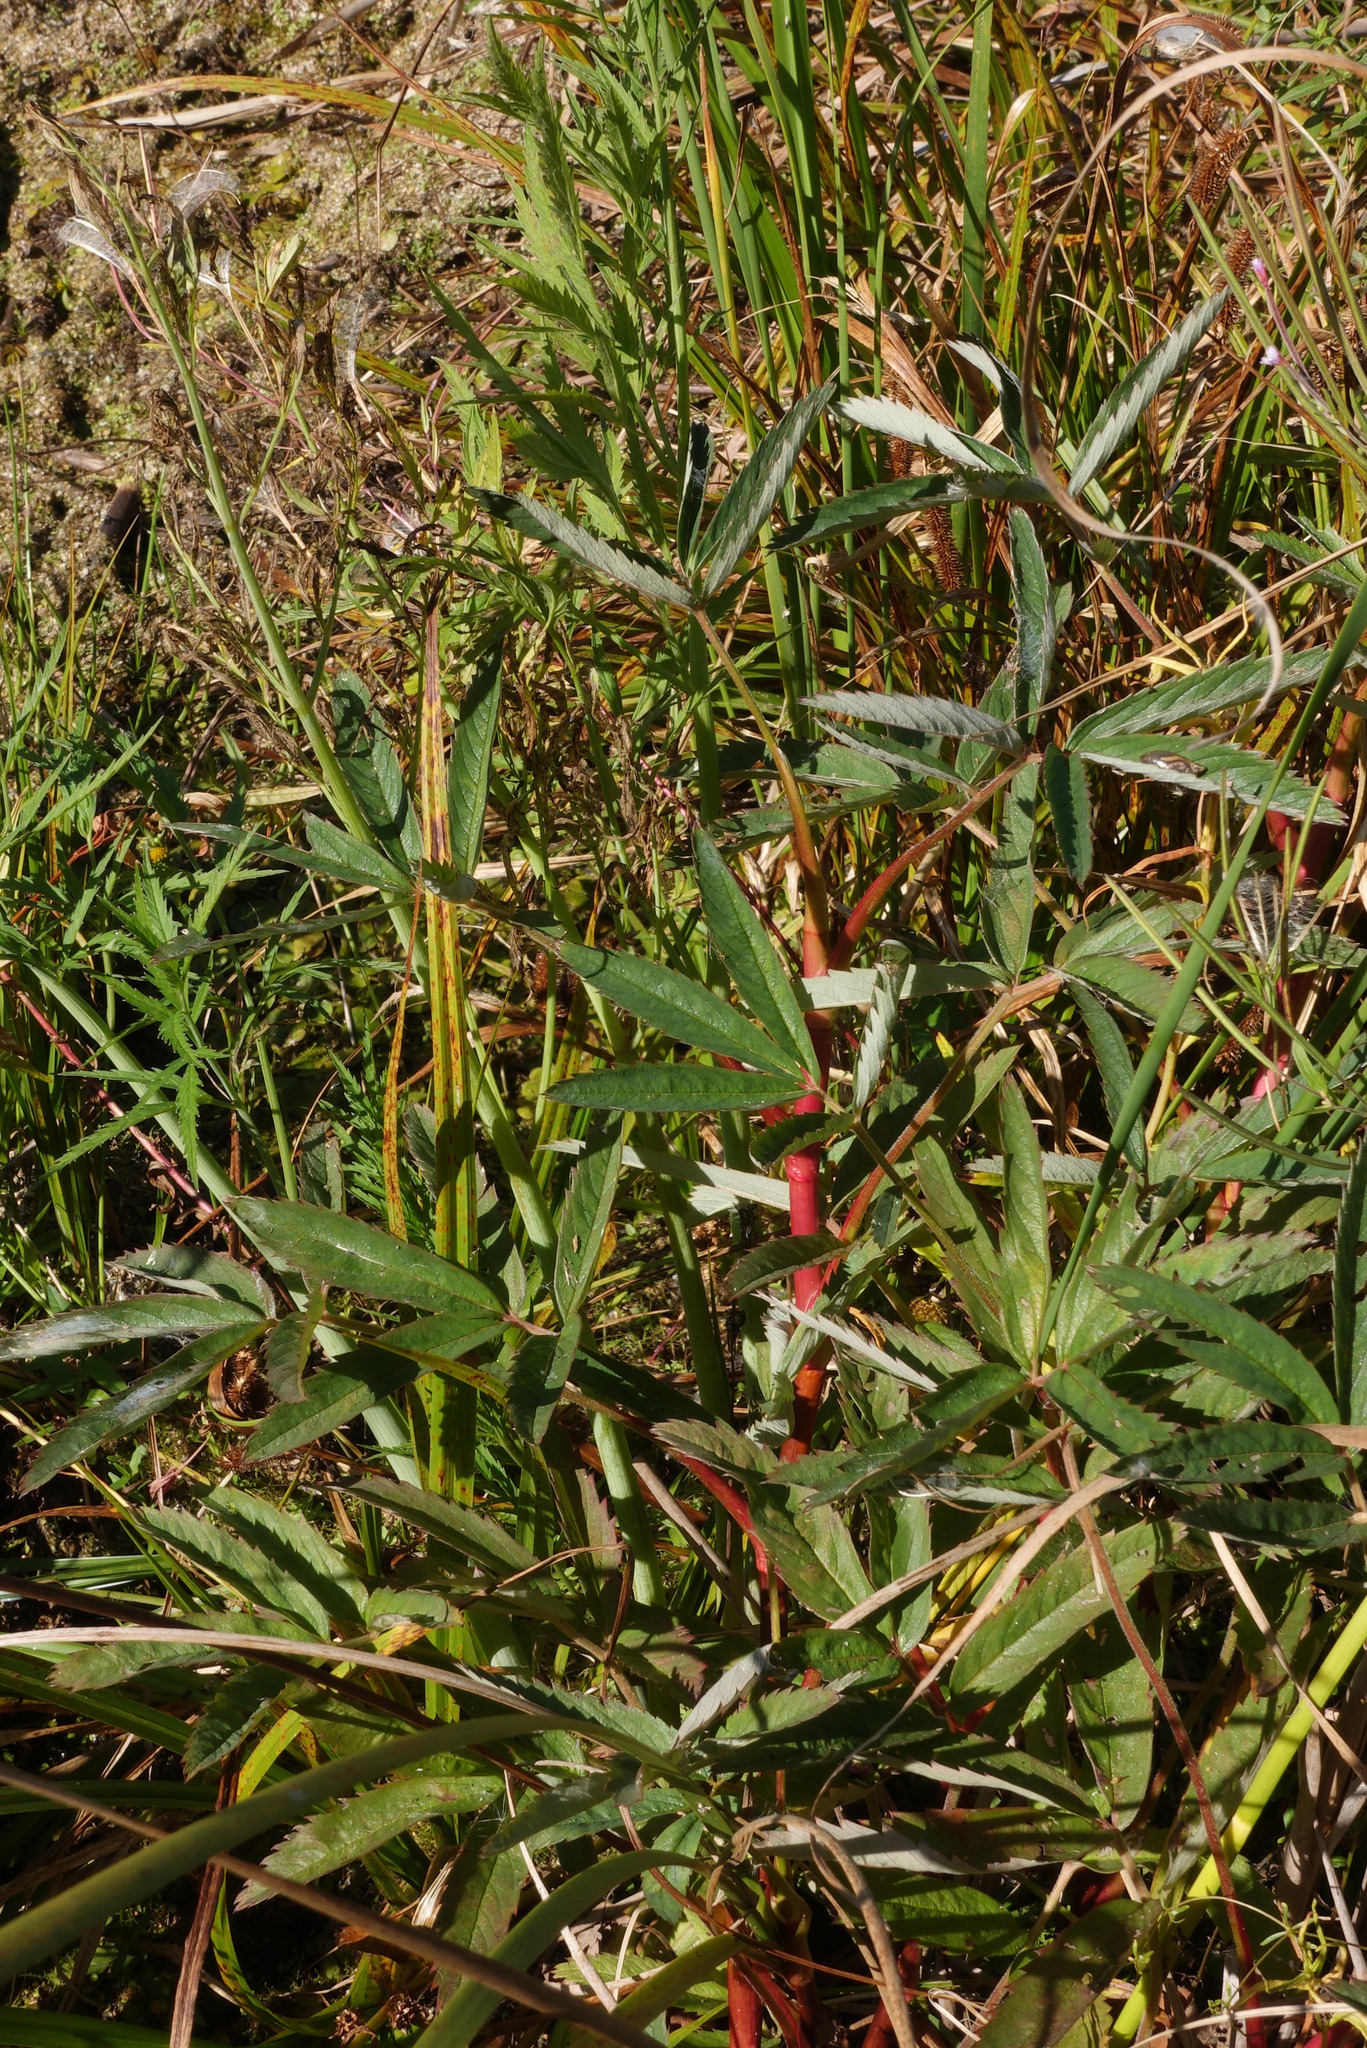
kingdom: Plantae
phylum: Tracheophyta
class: Magnoliopsida
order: Rosales
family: Rosaceae
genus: Comarum
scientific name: Comarum palustre
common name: Marsh cinquefoil
